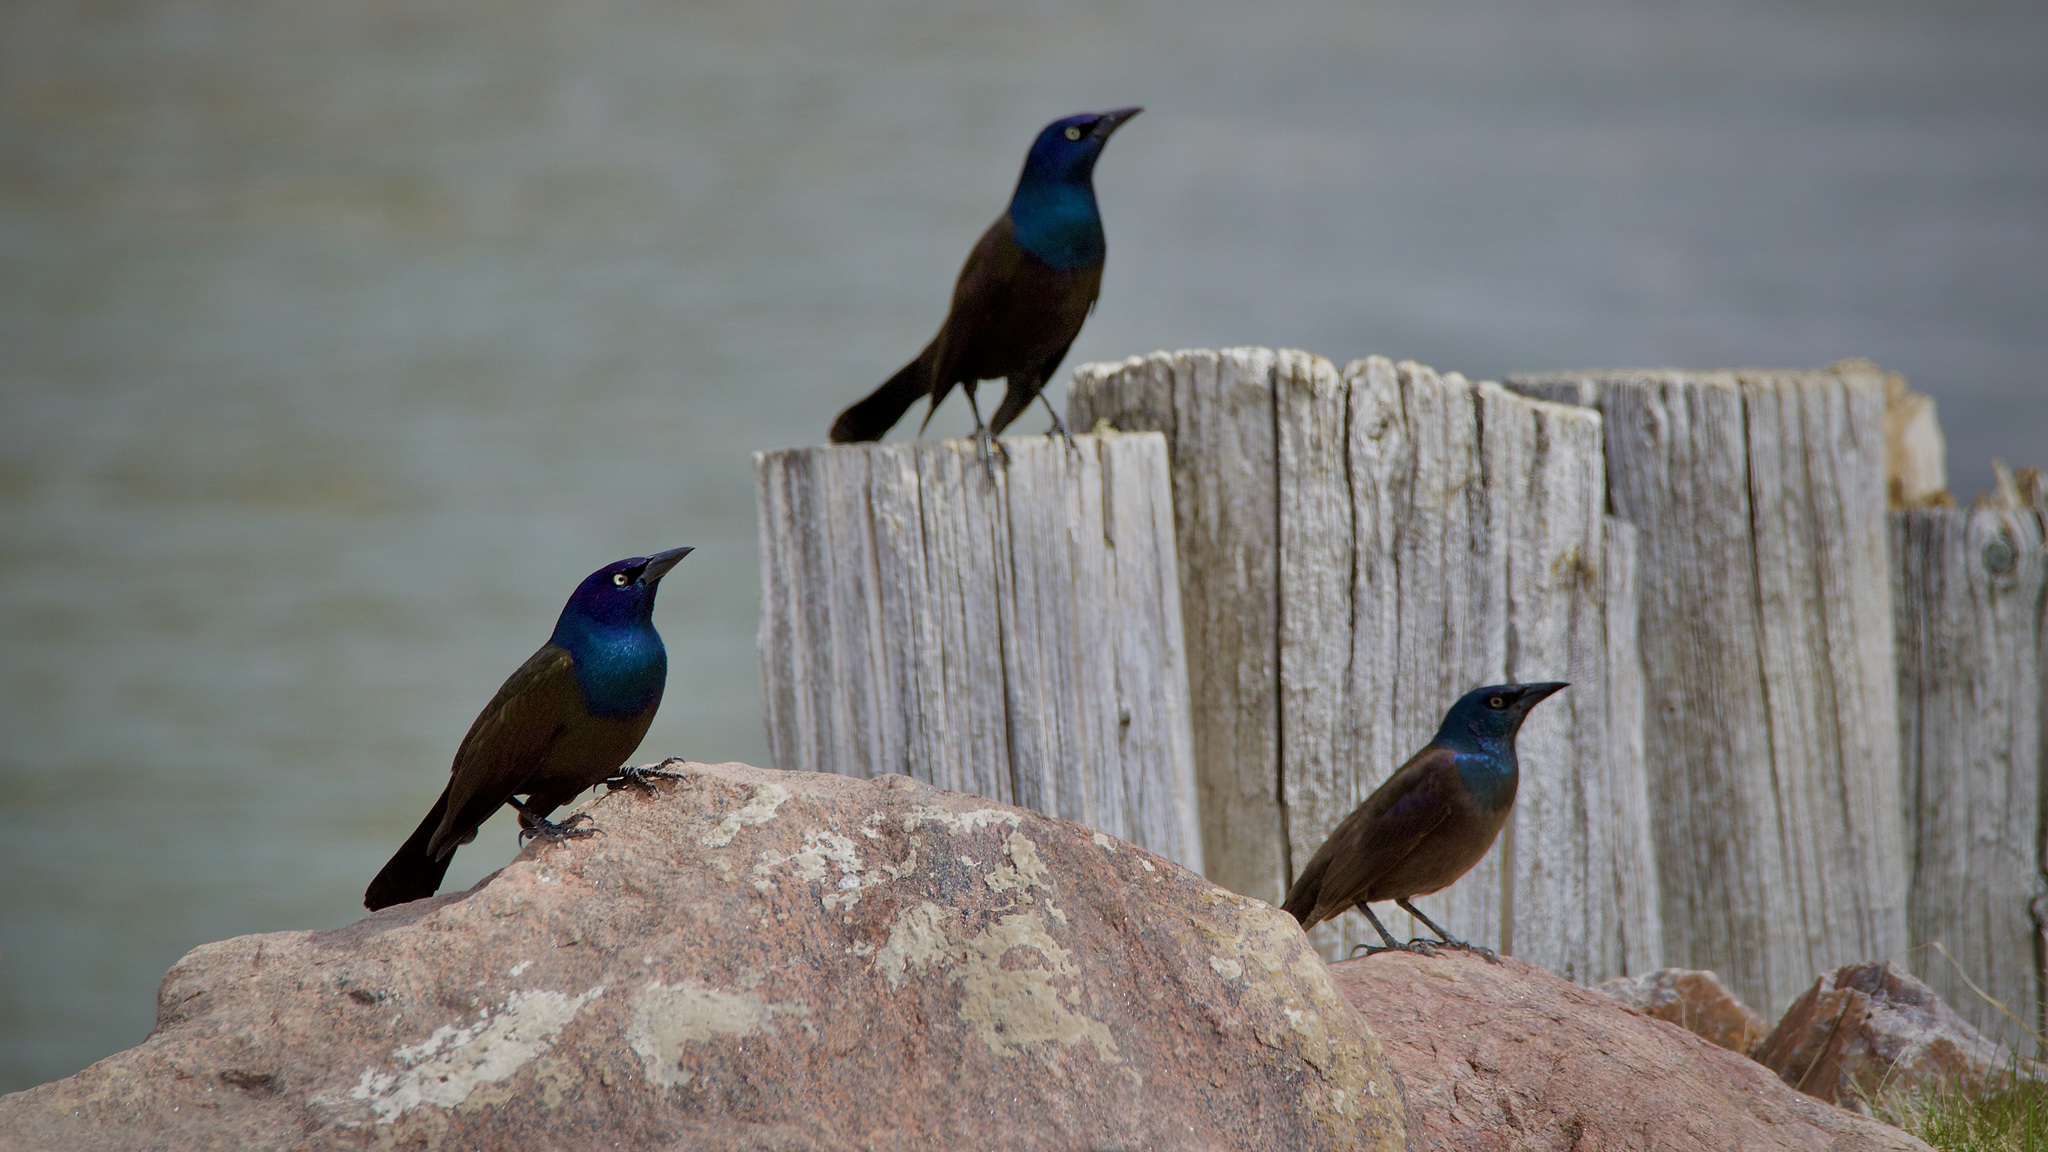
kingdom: Animalia
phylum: Chordata
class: Aves
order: Passeriformes
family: Icteridae
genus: Quiscalus
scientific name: Quiscalus quiscula
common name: Common grackle
